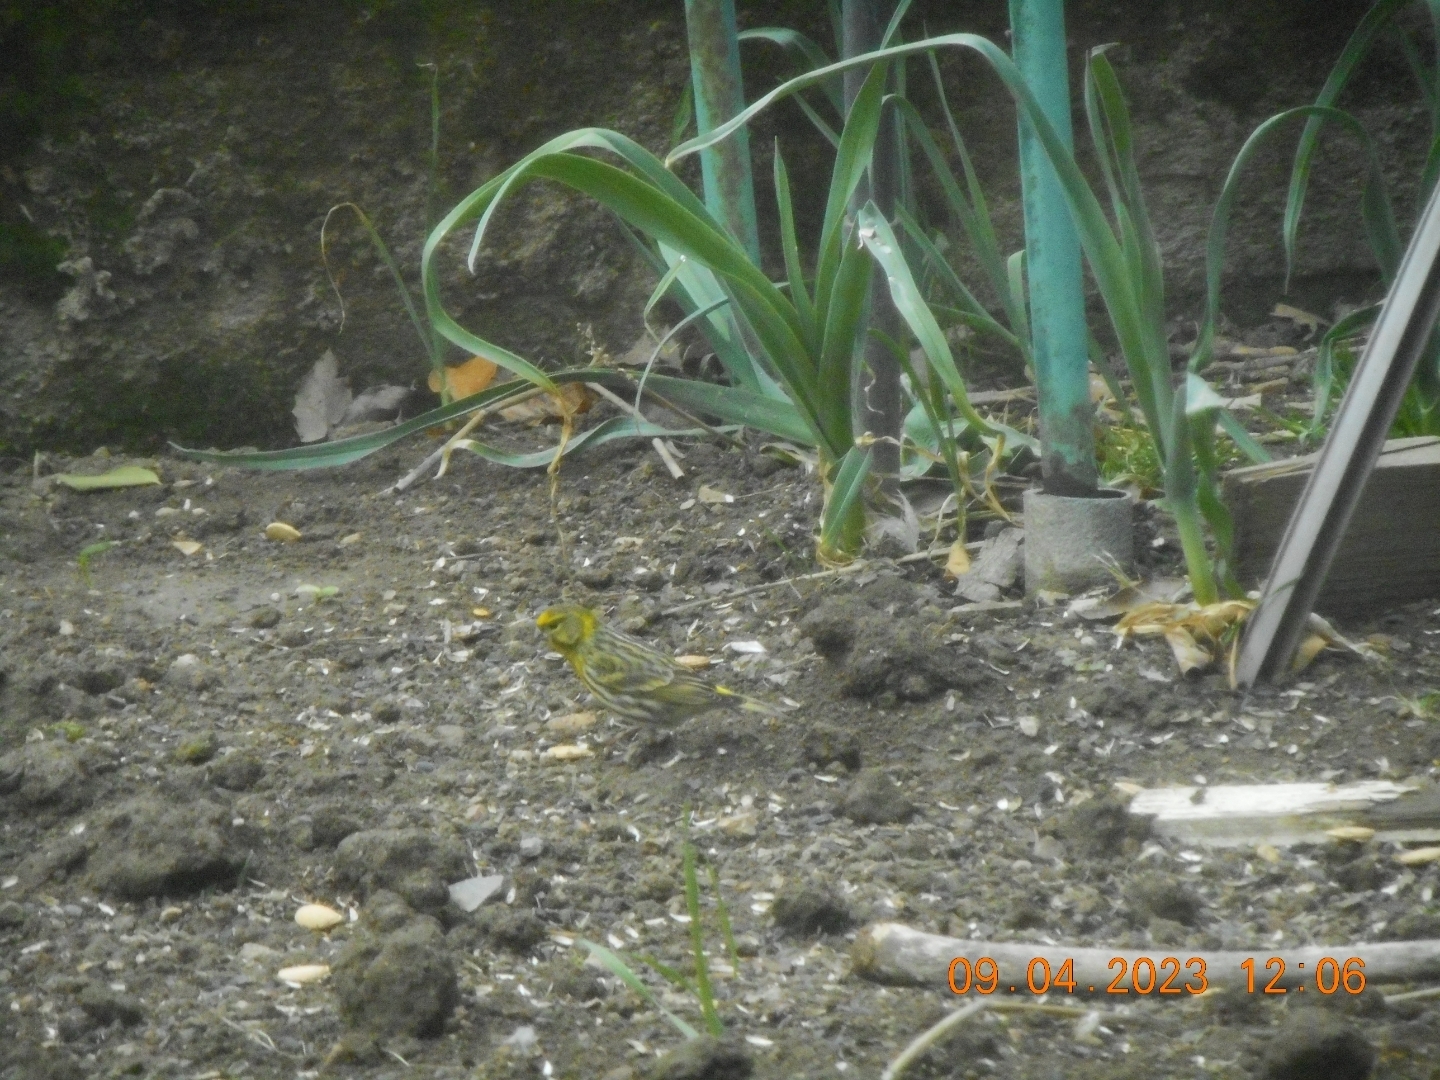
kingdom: Animalia
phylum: Chordata
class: Aves
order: Passeriformes
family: Fringillidae
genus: Serinus
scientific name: Serinus serinus
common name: European serin
